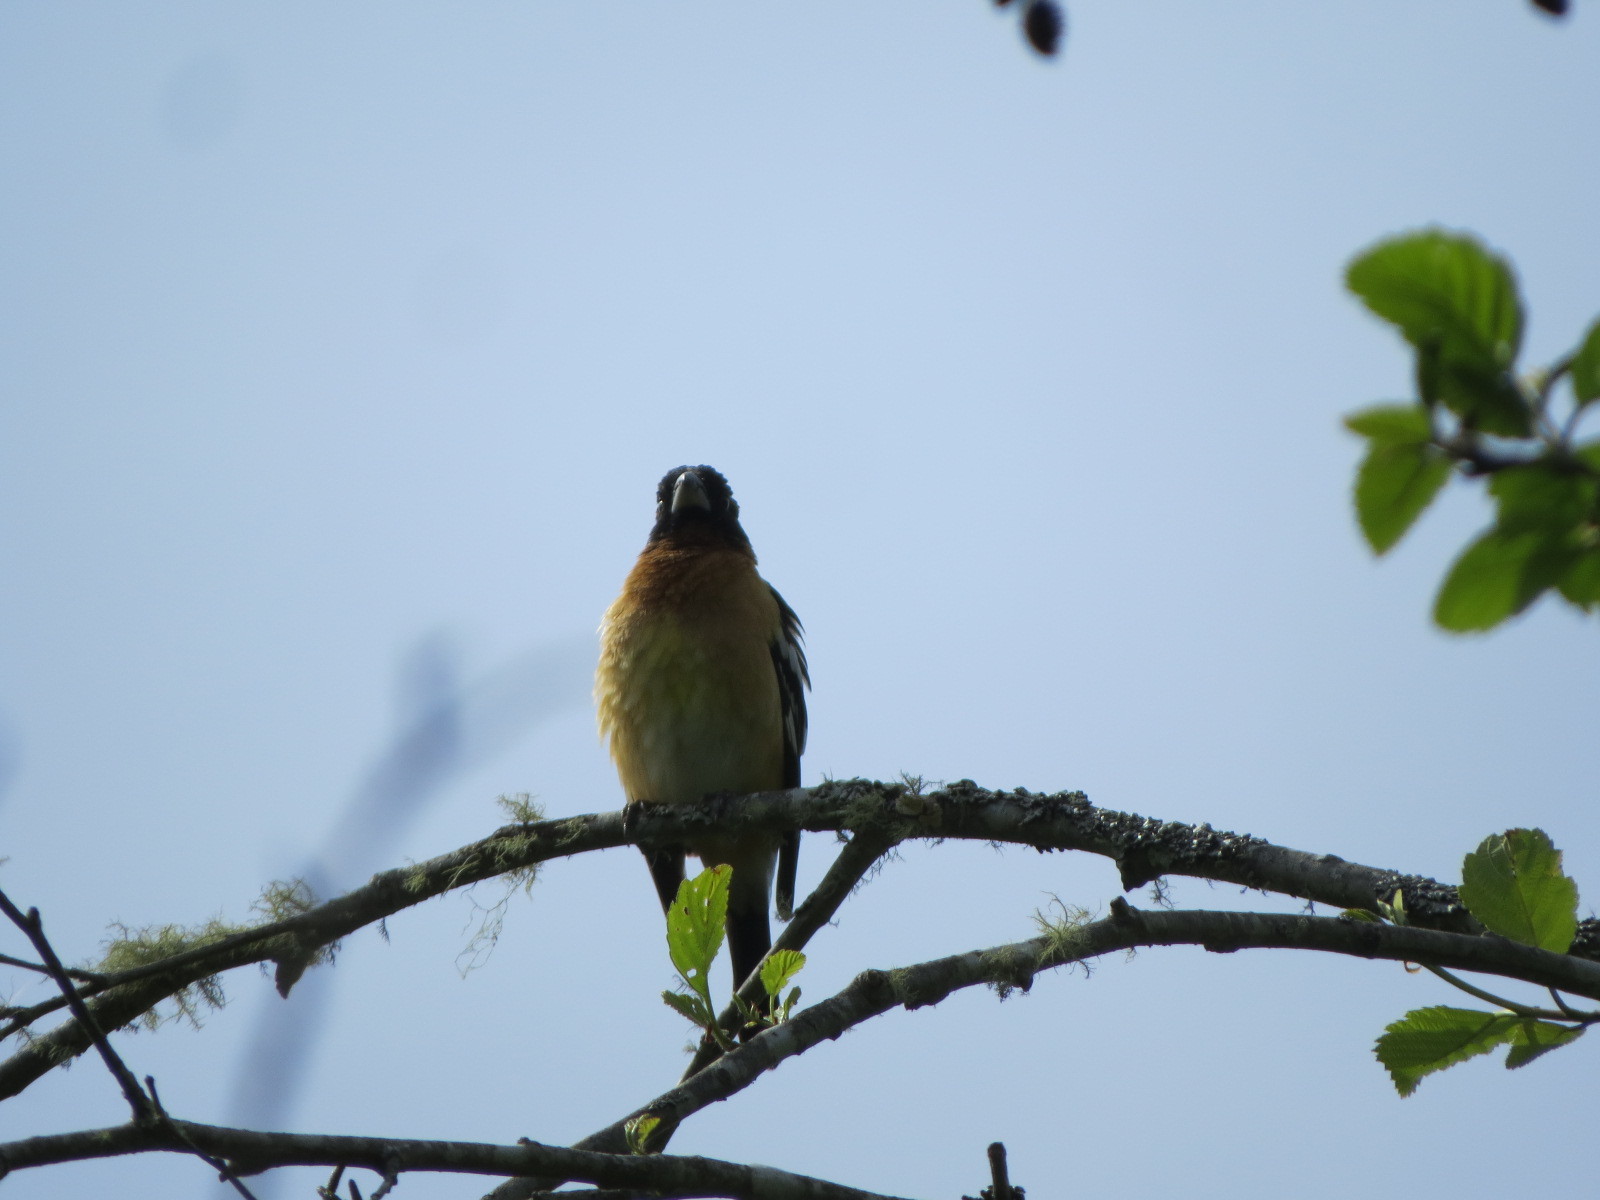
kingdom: Animalia
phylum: Chordata
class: Aves
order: Passeriformes
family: Cardinalidae
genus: Pheucticus
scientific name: Pheucticus melanocephalus
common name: Black-headed grosbeak
